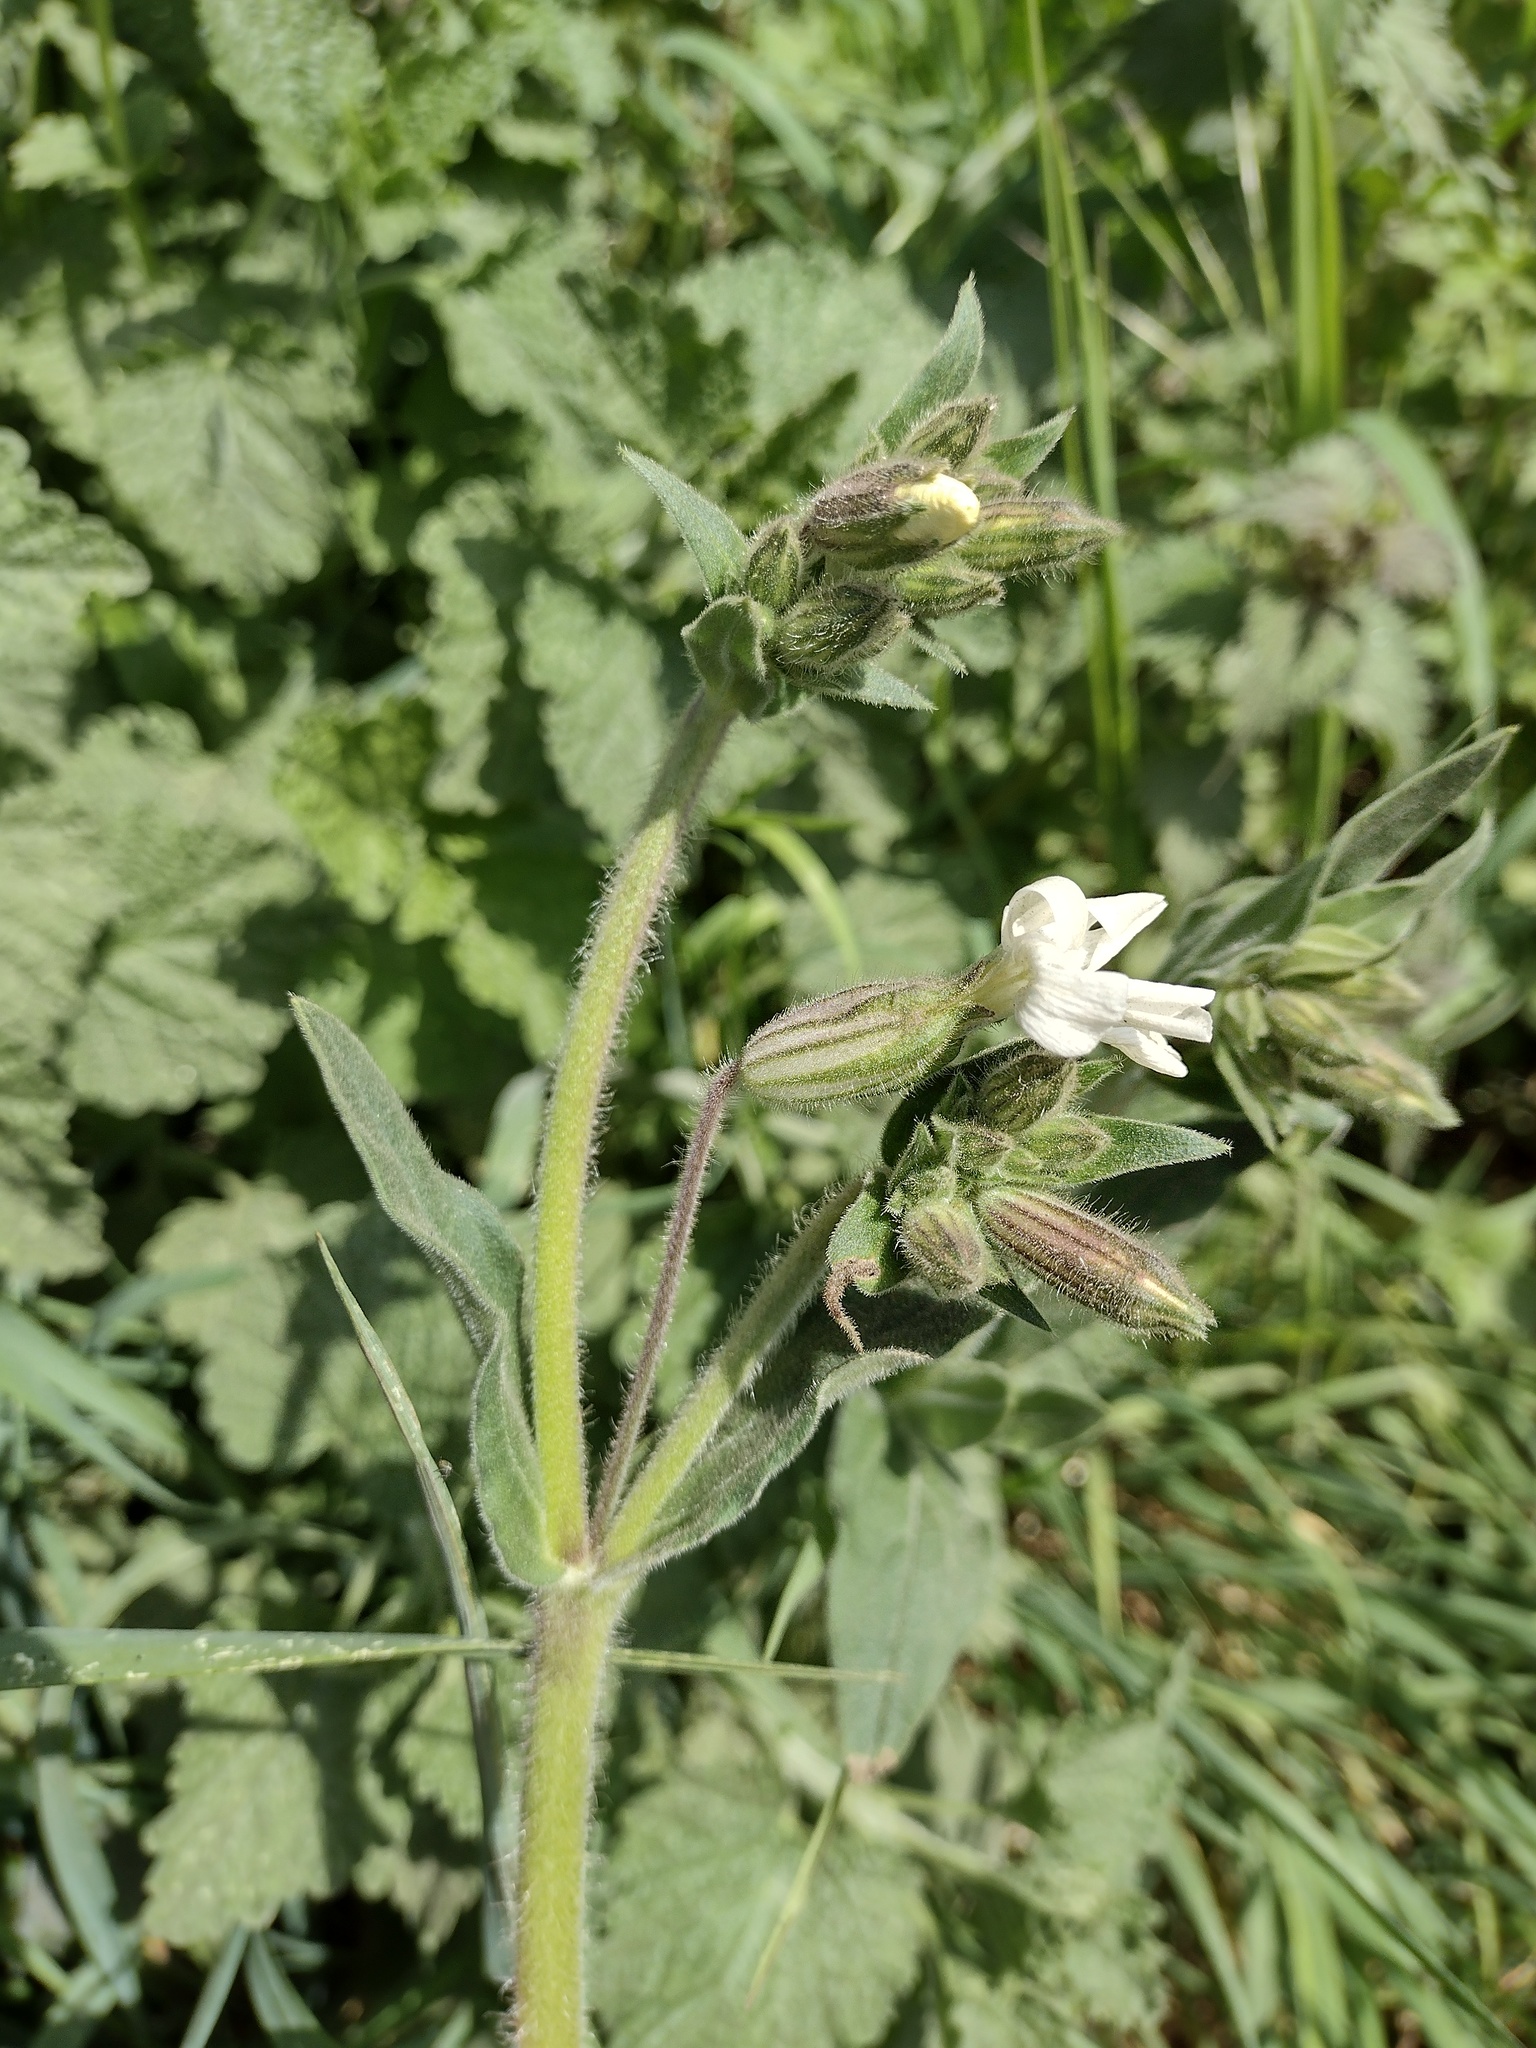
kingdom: Plantae
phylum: Tracheophyta
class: Magnoliopsida
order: Caryophyllales
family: Caryophyllaceae
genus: Silene
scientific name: Silene latifolia
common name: White campion
